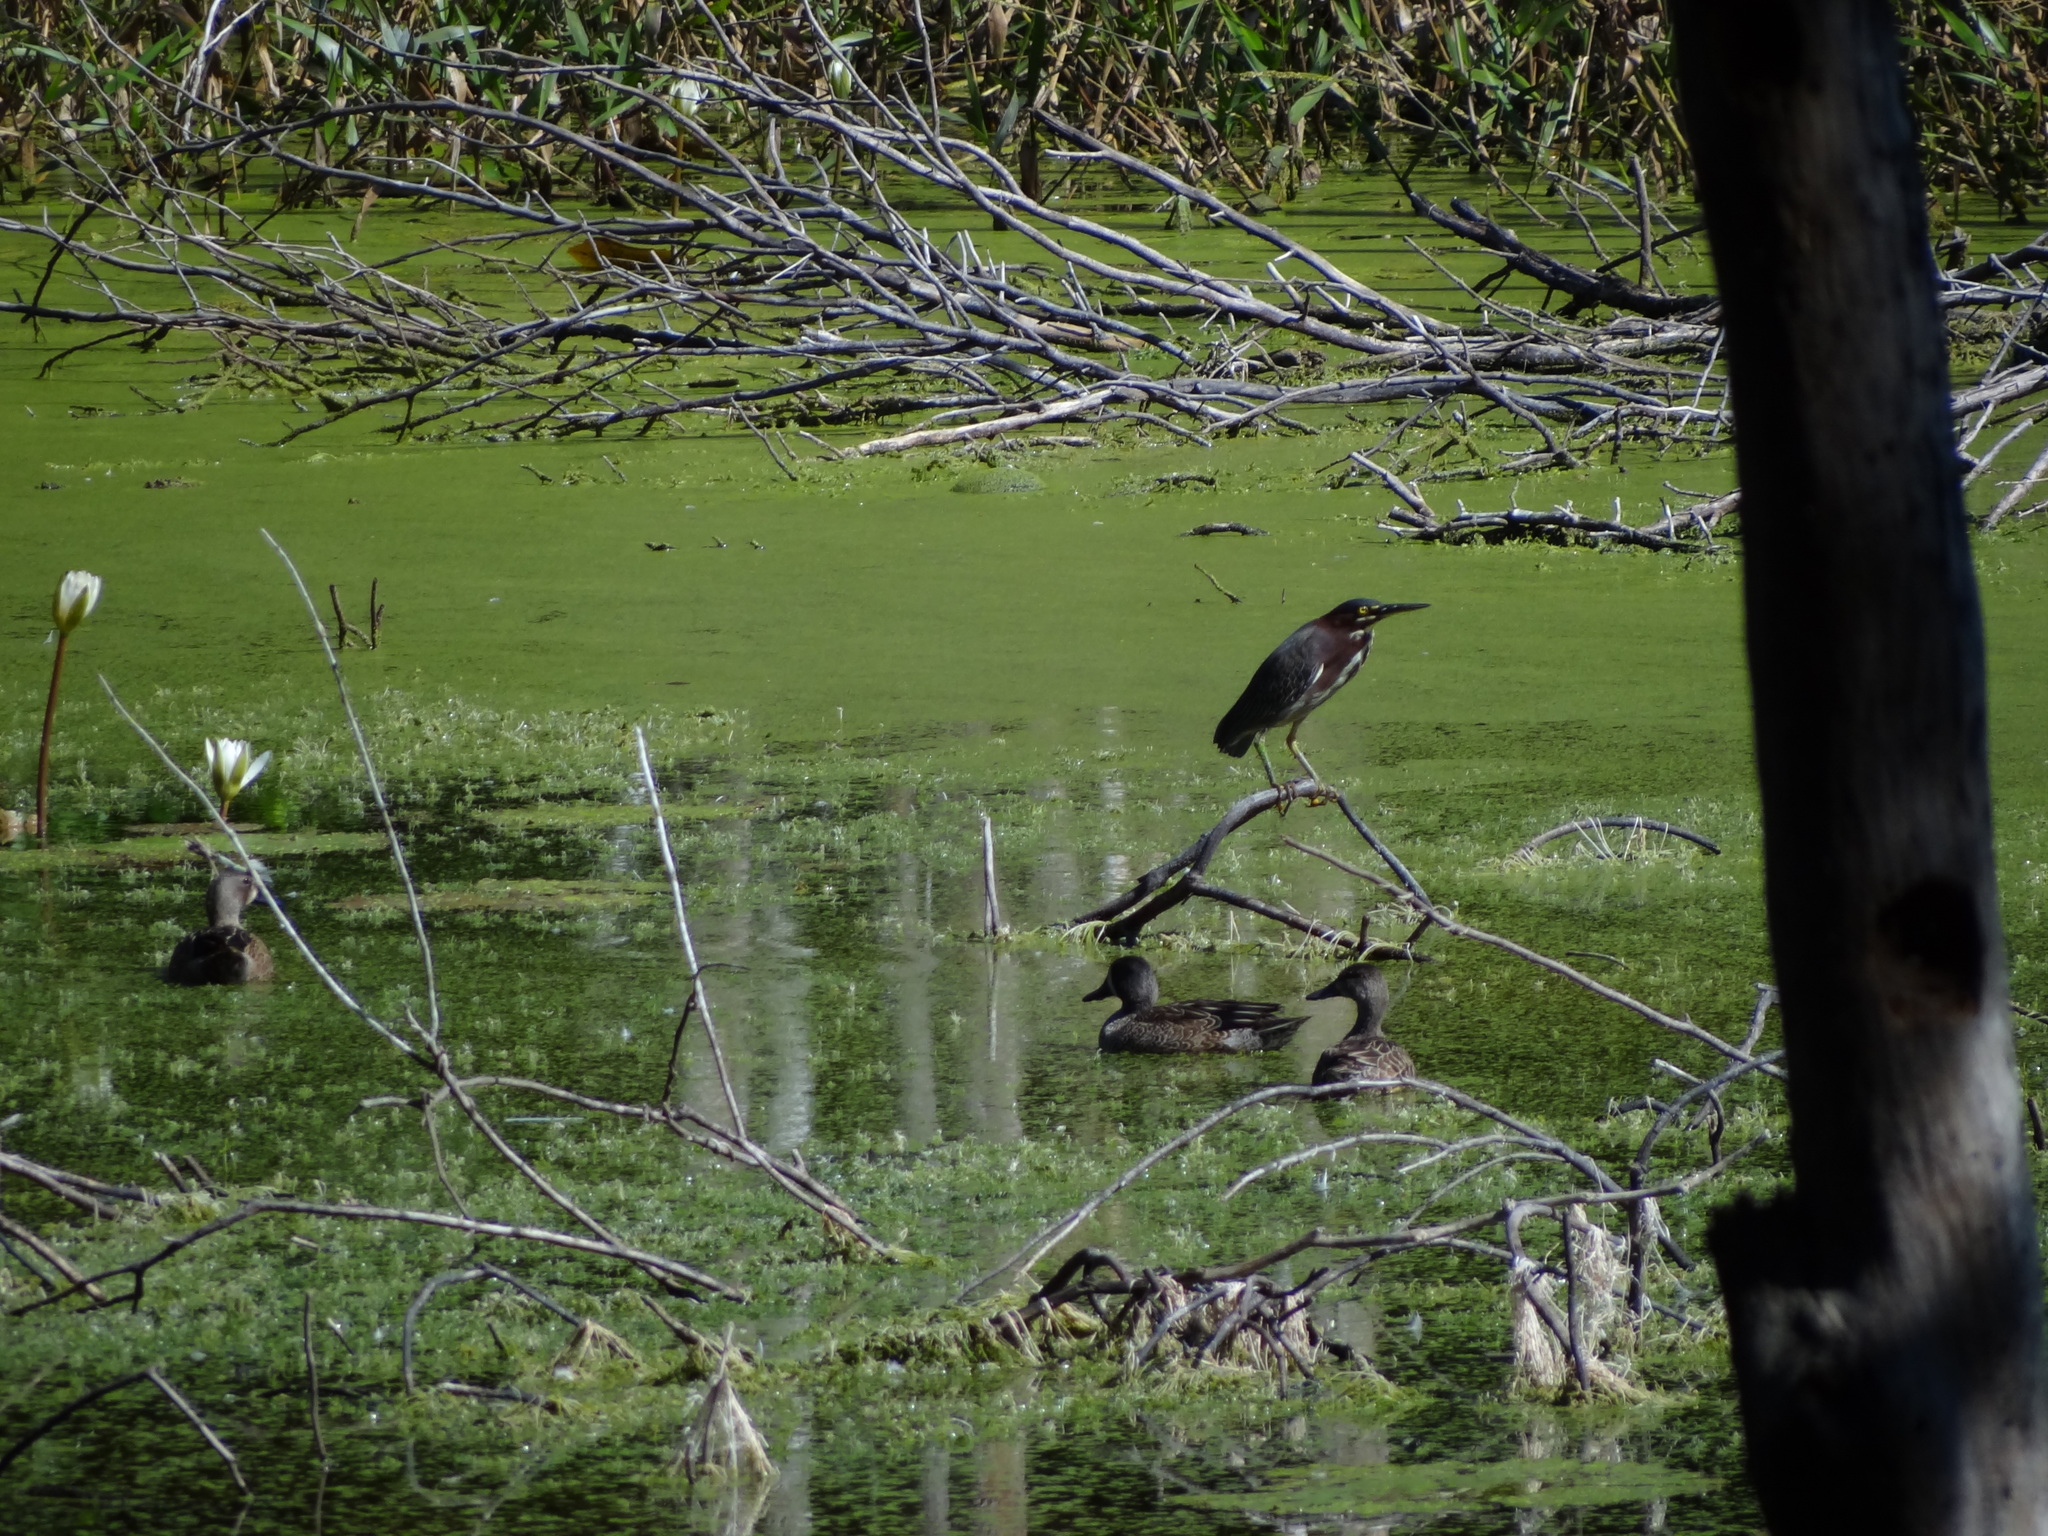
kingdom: Animalia
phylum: Chordata
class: Aves
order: Pelecaniformes
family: Ardeidae
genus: Butorides
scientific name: Butorides virescens
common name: Green heron
